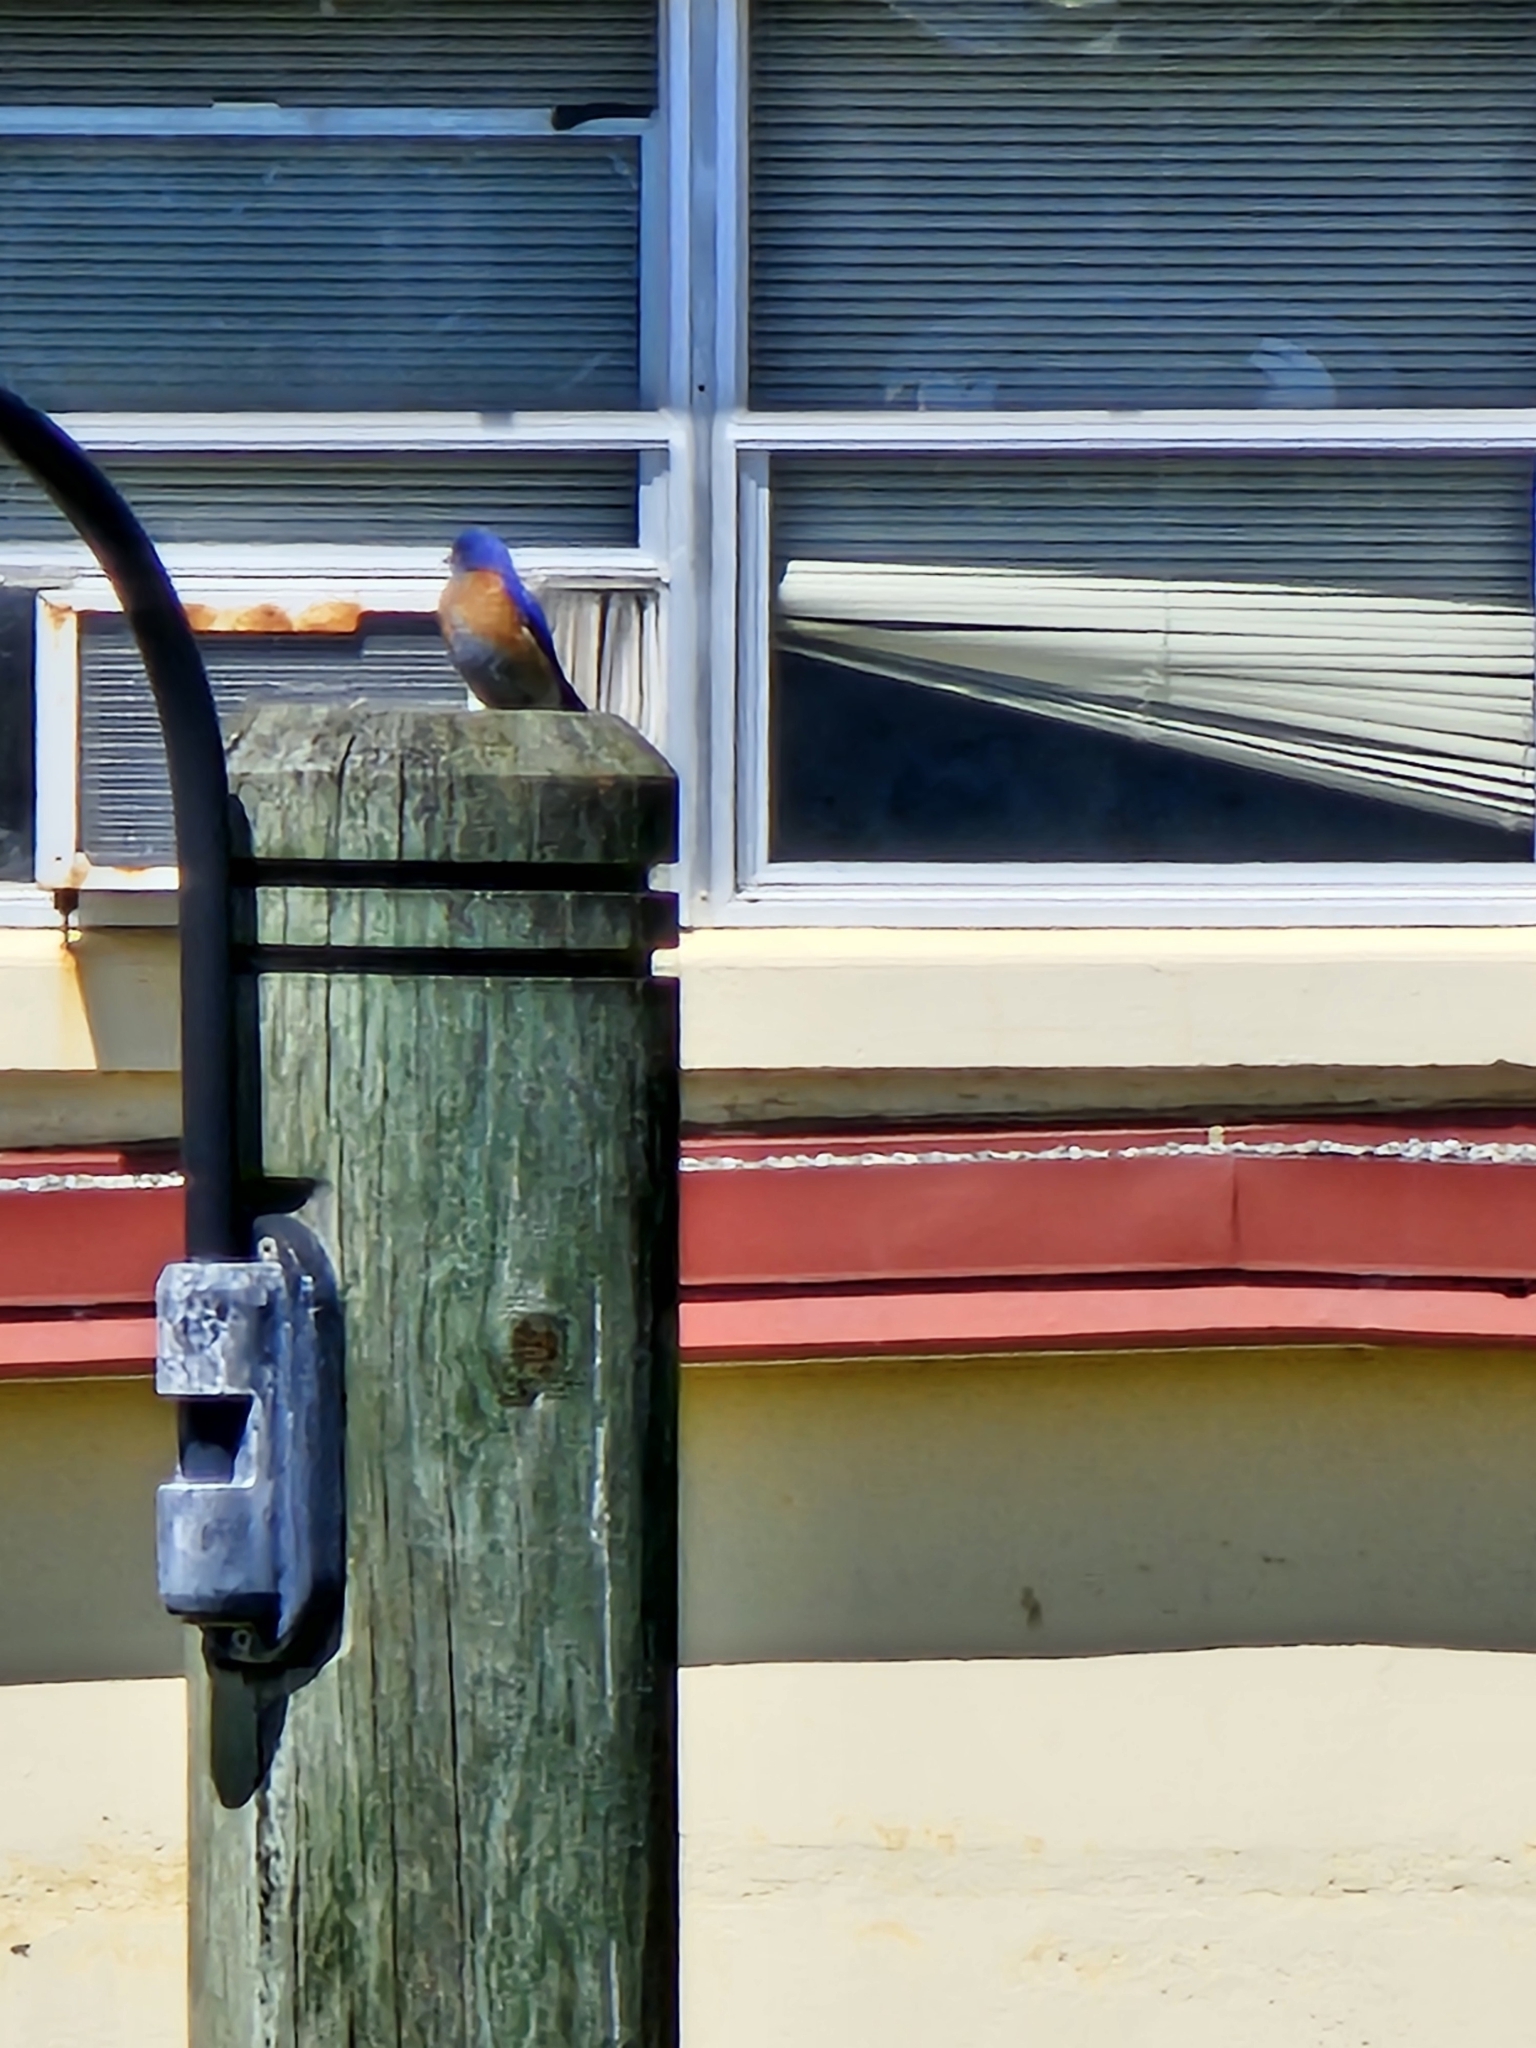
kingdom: Animalia
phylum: Chordata
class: Aves
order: Passeriformes
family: Turdidae
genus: Sialia
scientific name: Sialia mexicana
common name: Western bluebird
